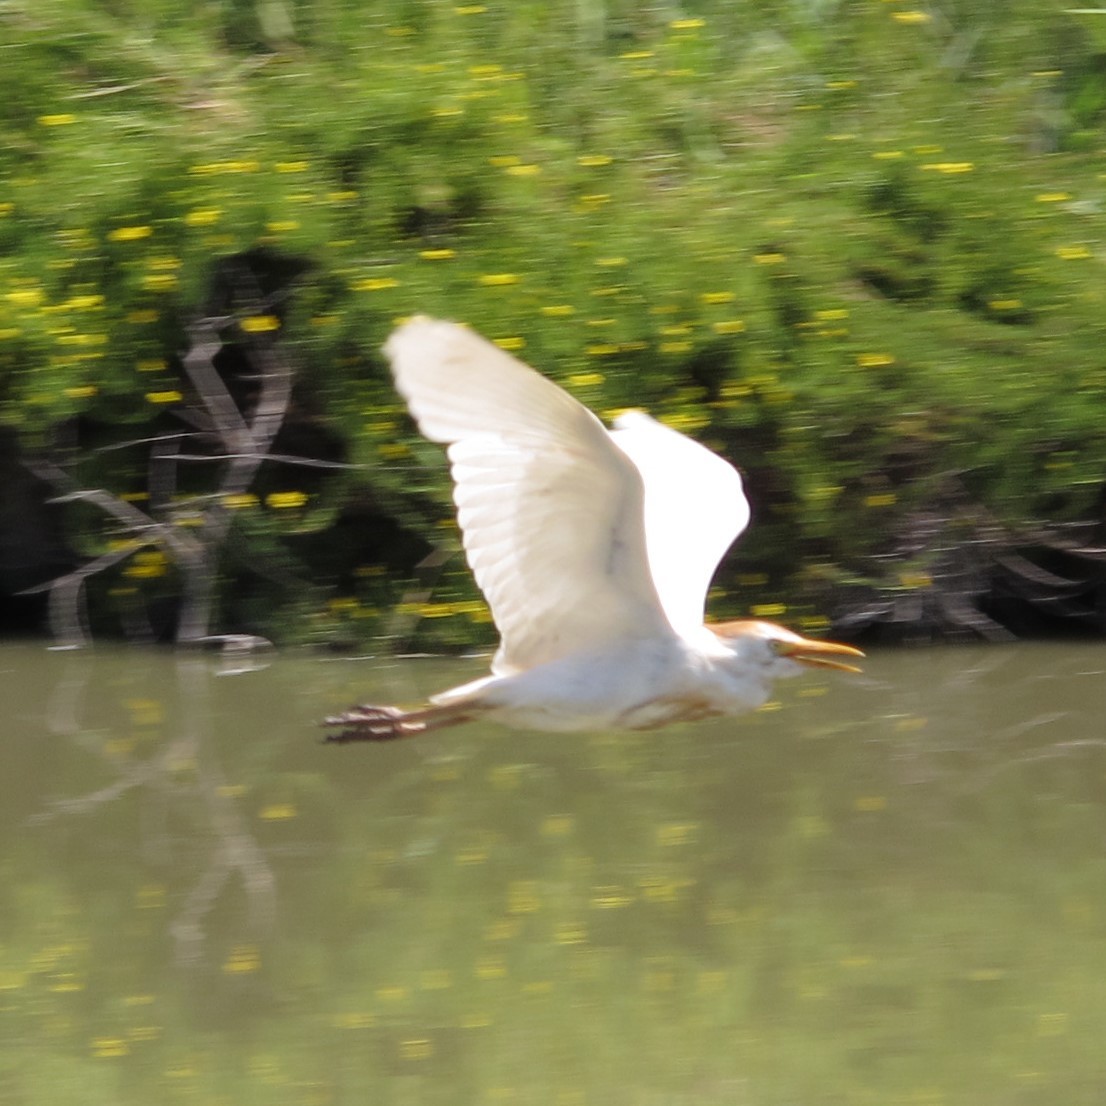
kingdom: Animalia
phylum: Chordata
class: Aves
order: Pelecaniformes
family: Ardeidae
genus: Bubulcus
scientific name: Bubulcus ibis
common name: Cattle egret
